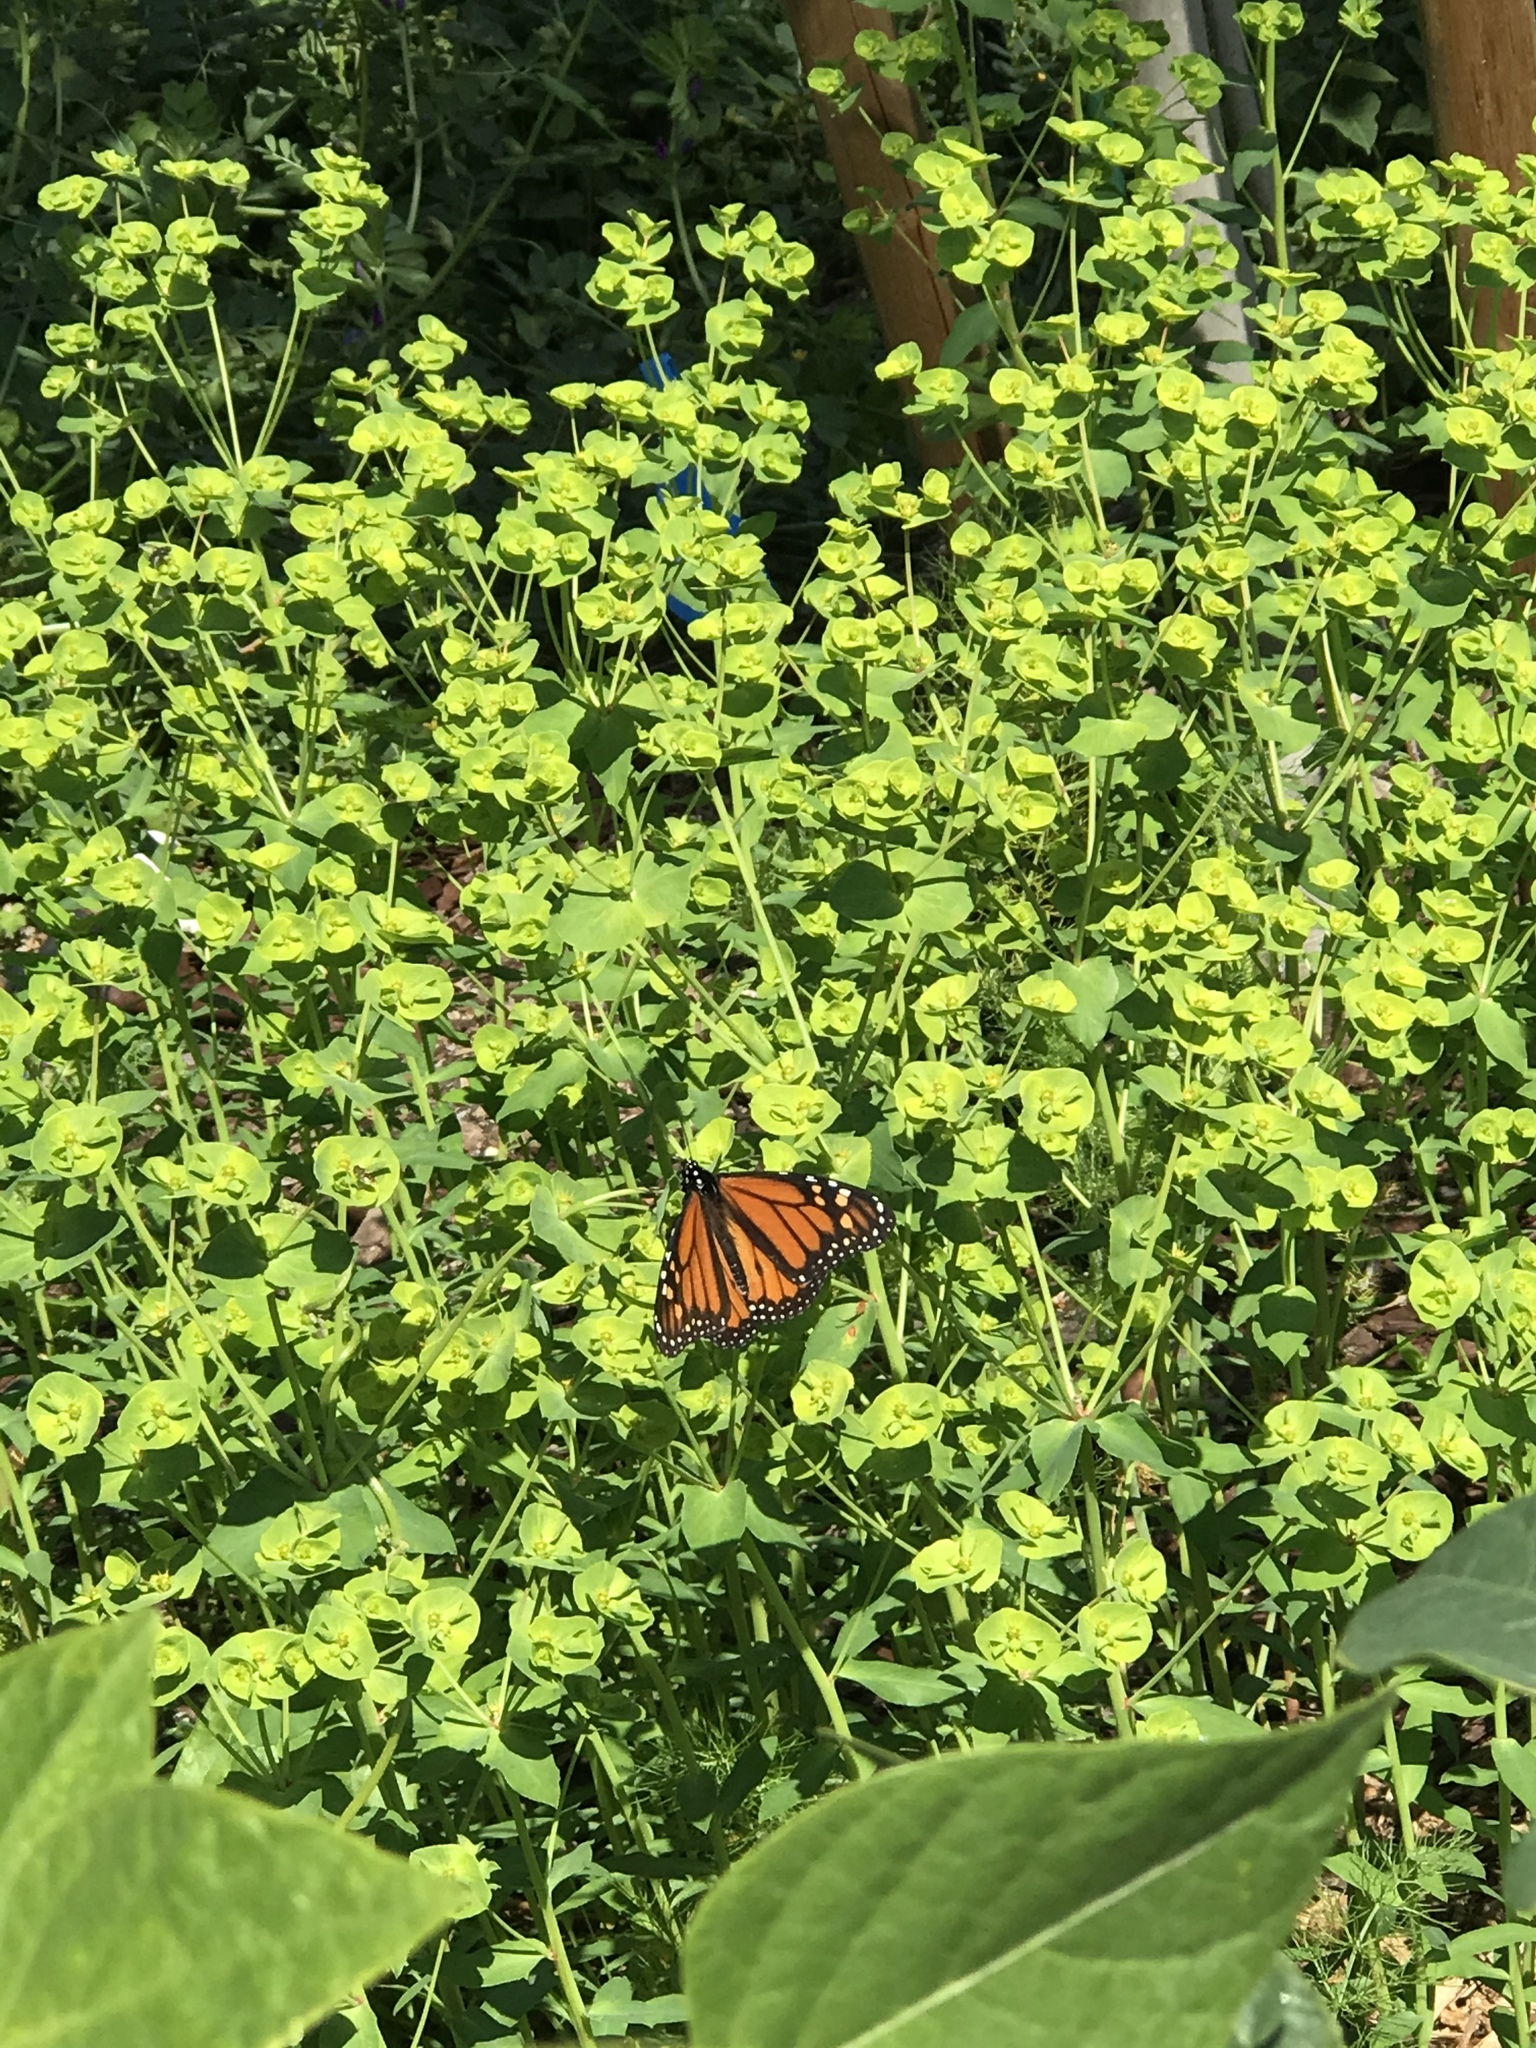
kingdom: Animalia
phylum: Arthropoda
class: Insecta
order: Lepidoptera
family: Nymphalidae
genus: Danaus
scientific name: Danaus plexippus
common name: Monarch
